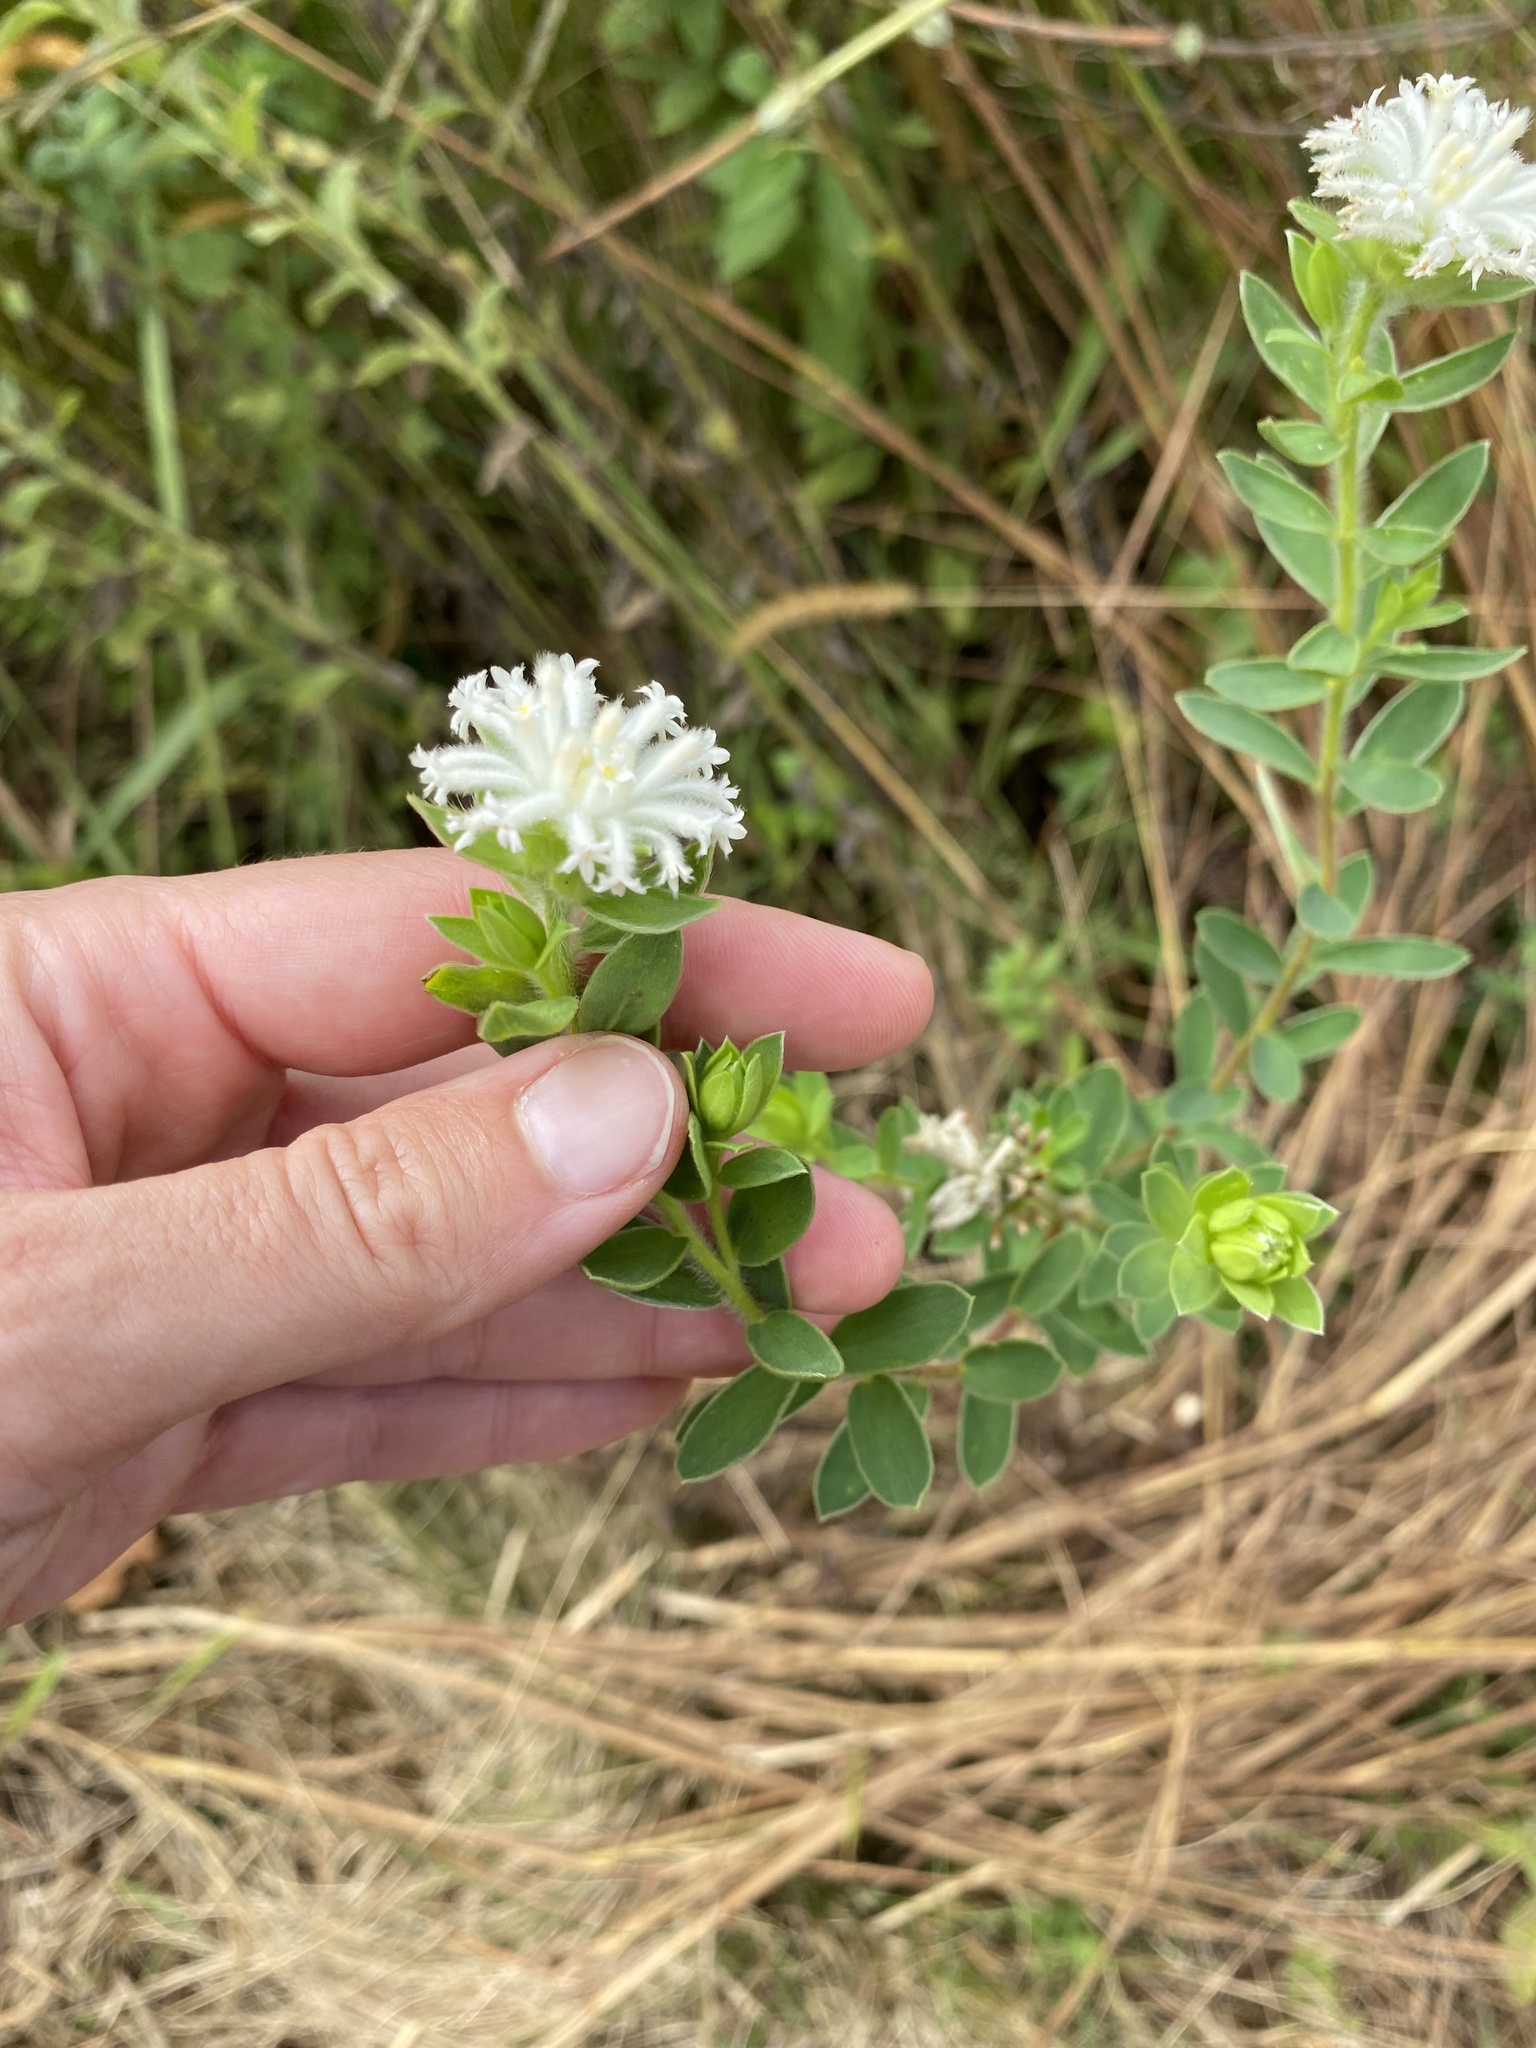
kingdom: Plantae
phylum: Tracheophyta
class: Magnoliopsida
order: Malvales
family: Thymelaeaceae
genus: Gnidia
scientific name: Gnidia calocephala
